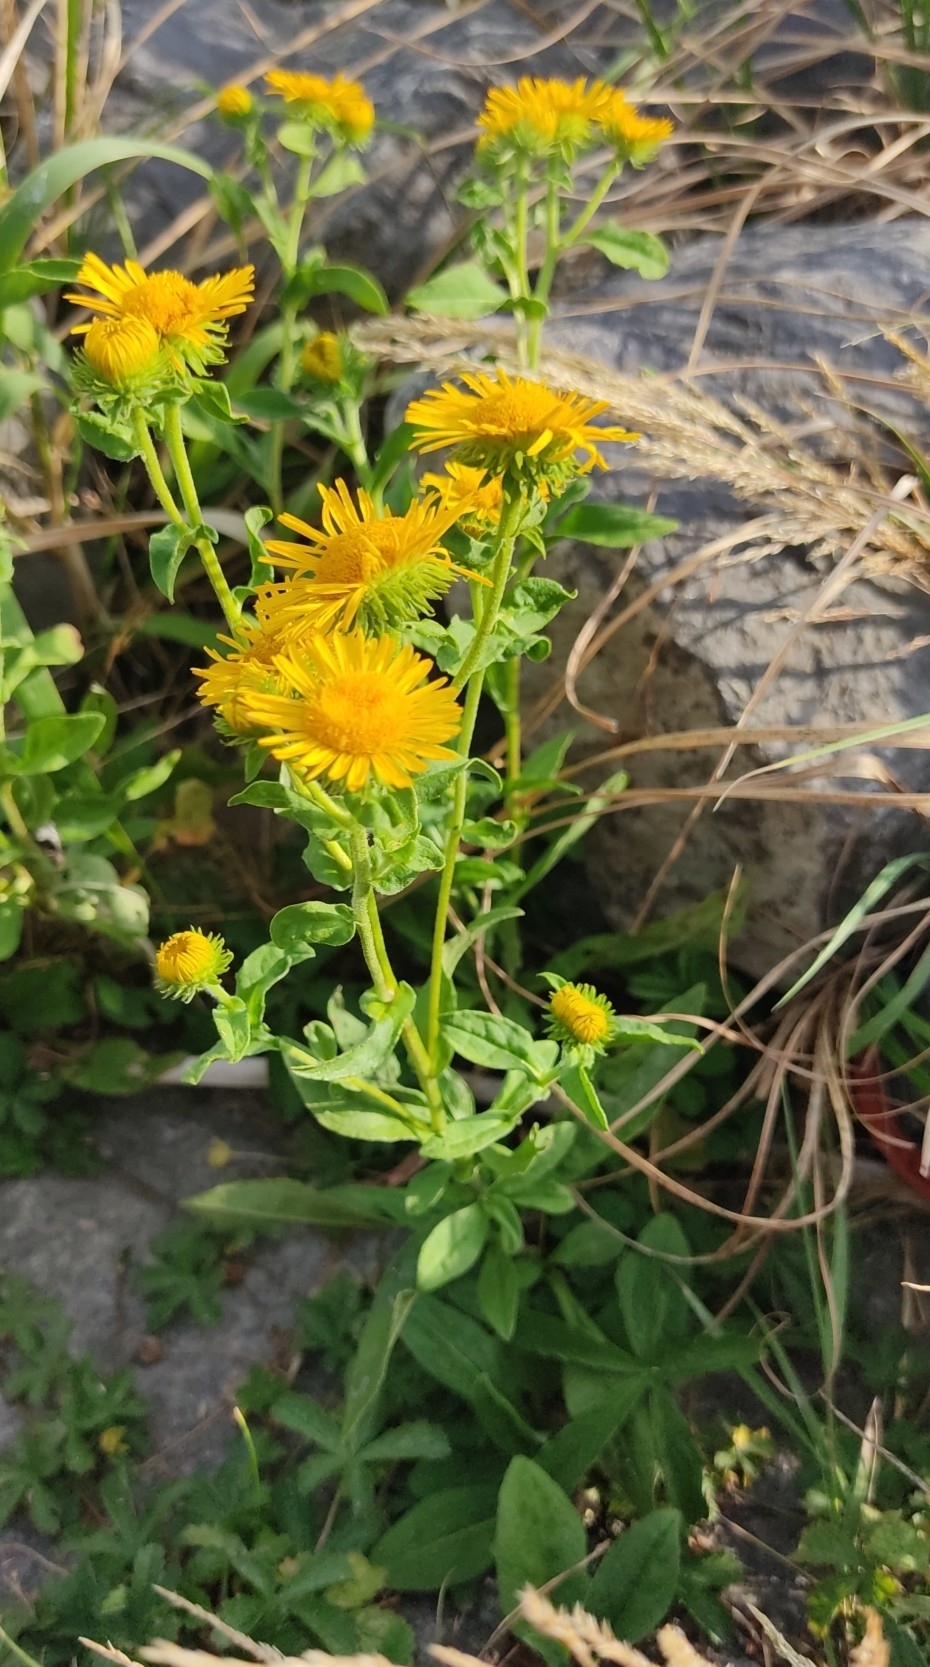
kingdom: Plantae
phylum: Tracheophyta
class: Magnoliopsida
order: Asterales
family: Asteraceae
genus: Pentanema
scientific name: Pentanema britannicum
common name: British elecampane
